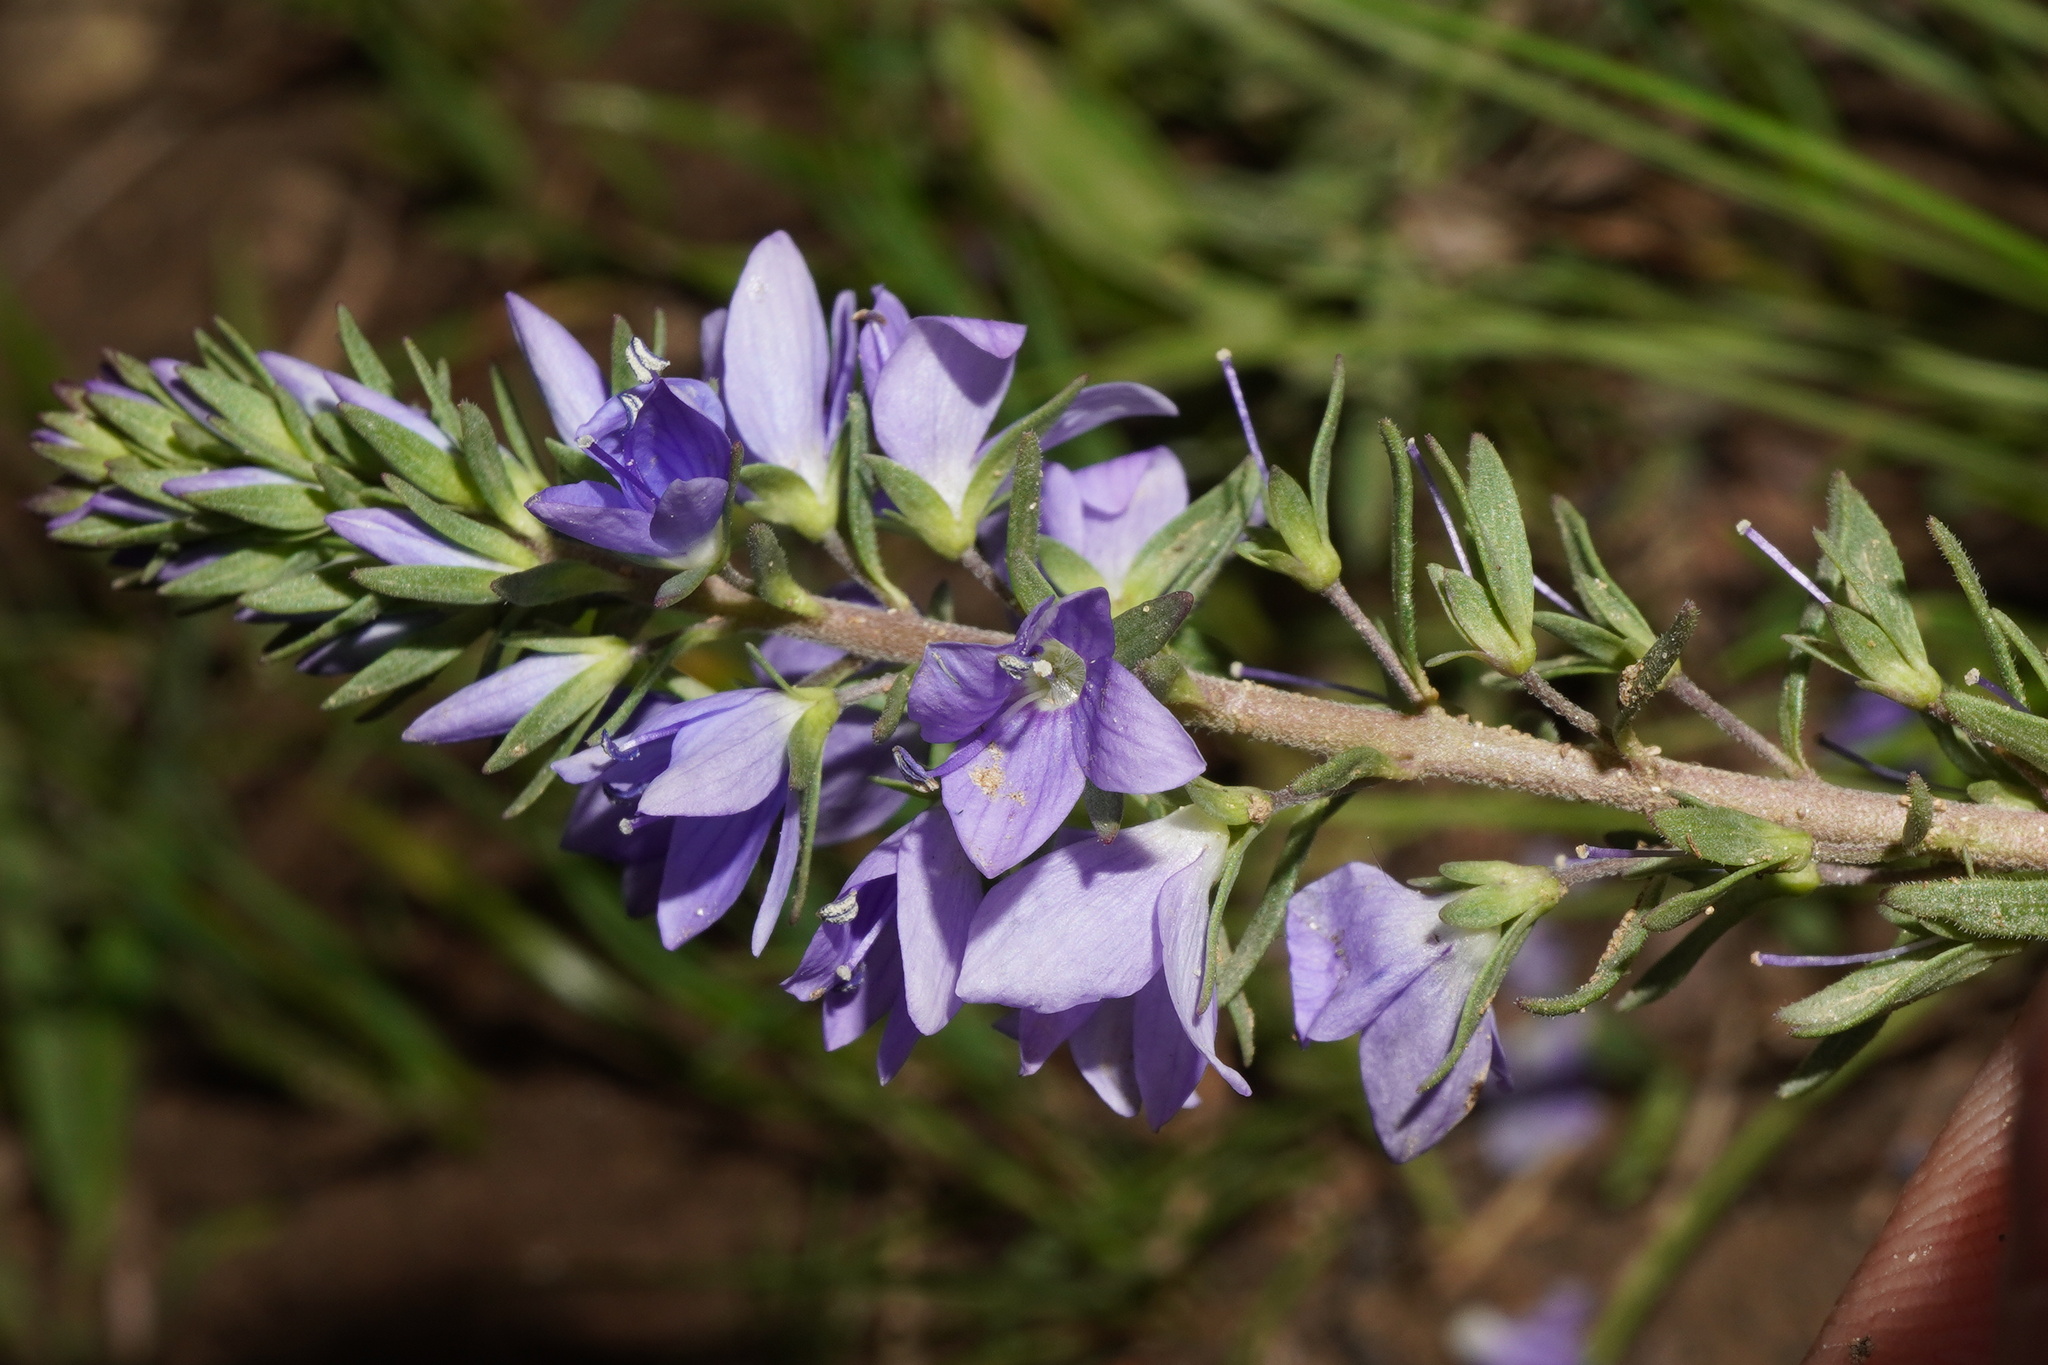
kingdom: Plantae
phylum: Tracheophyta
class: Magnoliopsida
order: Lamiales
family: Plantaginaceae
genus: Veronica
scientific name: Veronica prostrata
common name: Prostrate speedwell
